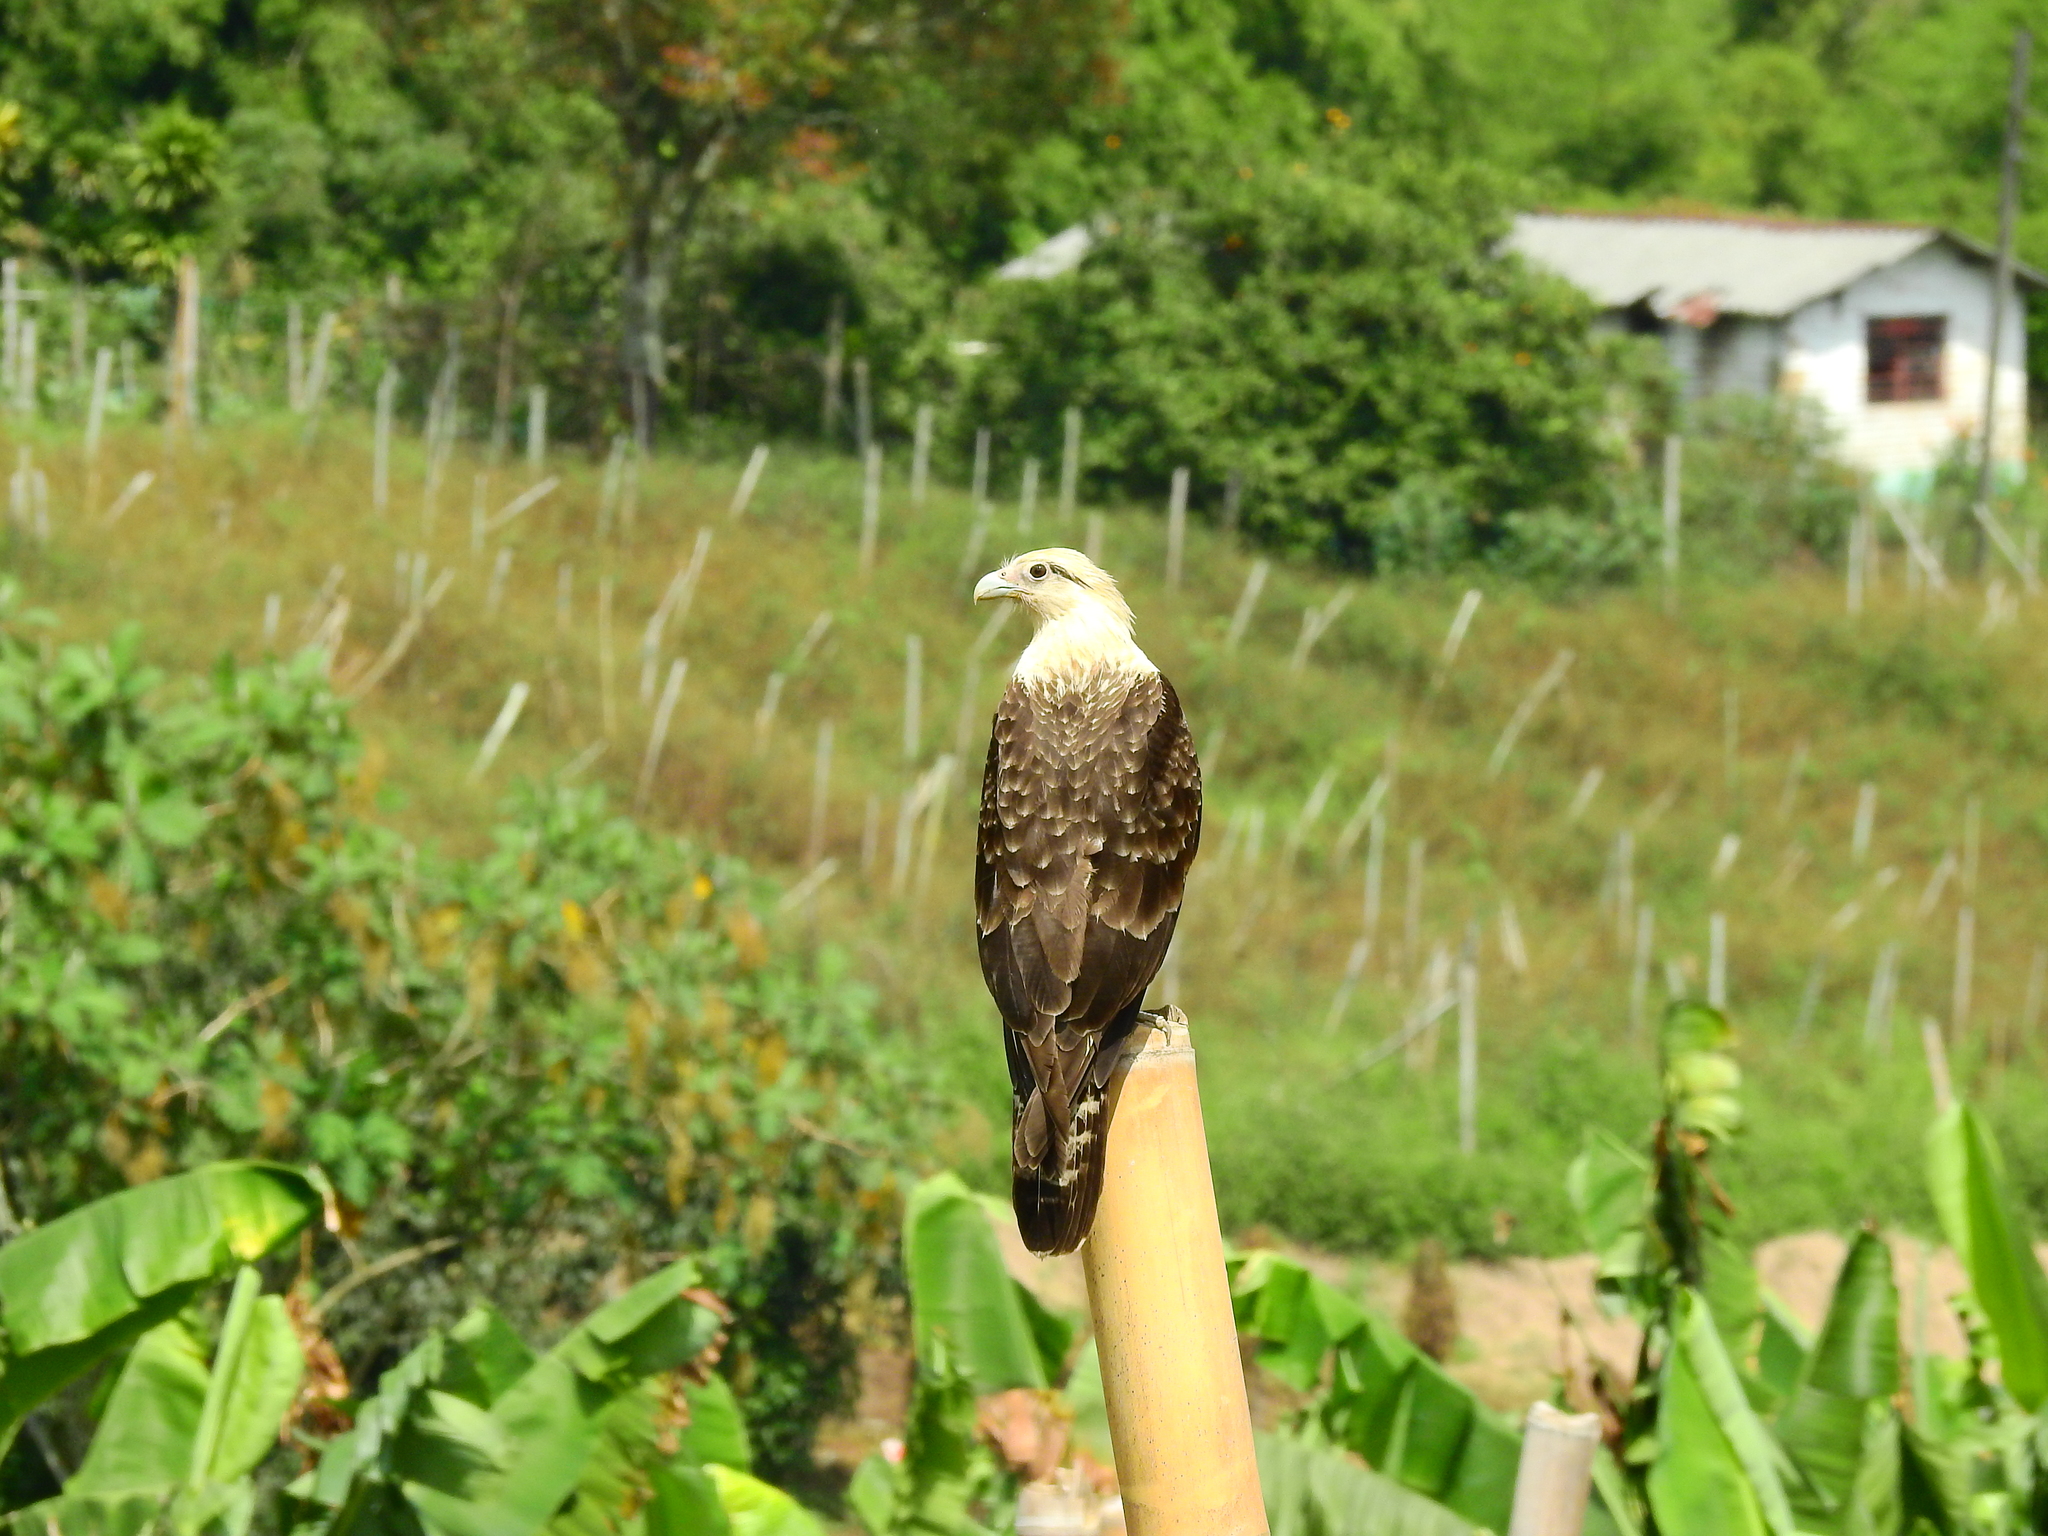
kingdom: Animalia
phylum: Chordata
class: Aves
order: Falconiformes
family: Falconidae
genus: Daptrius
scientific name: Daptrius
